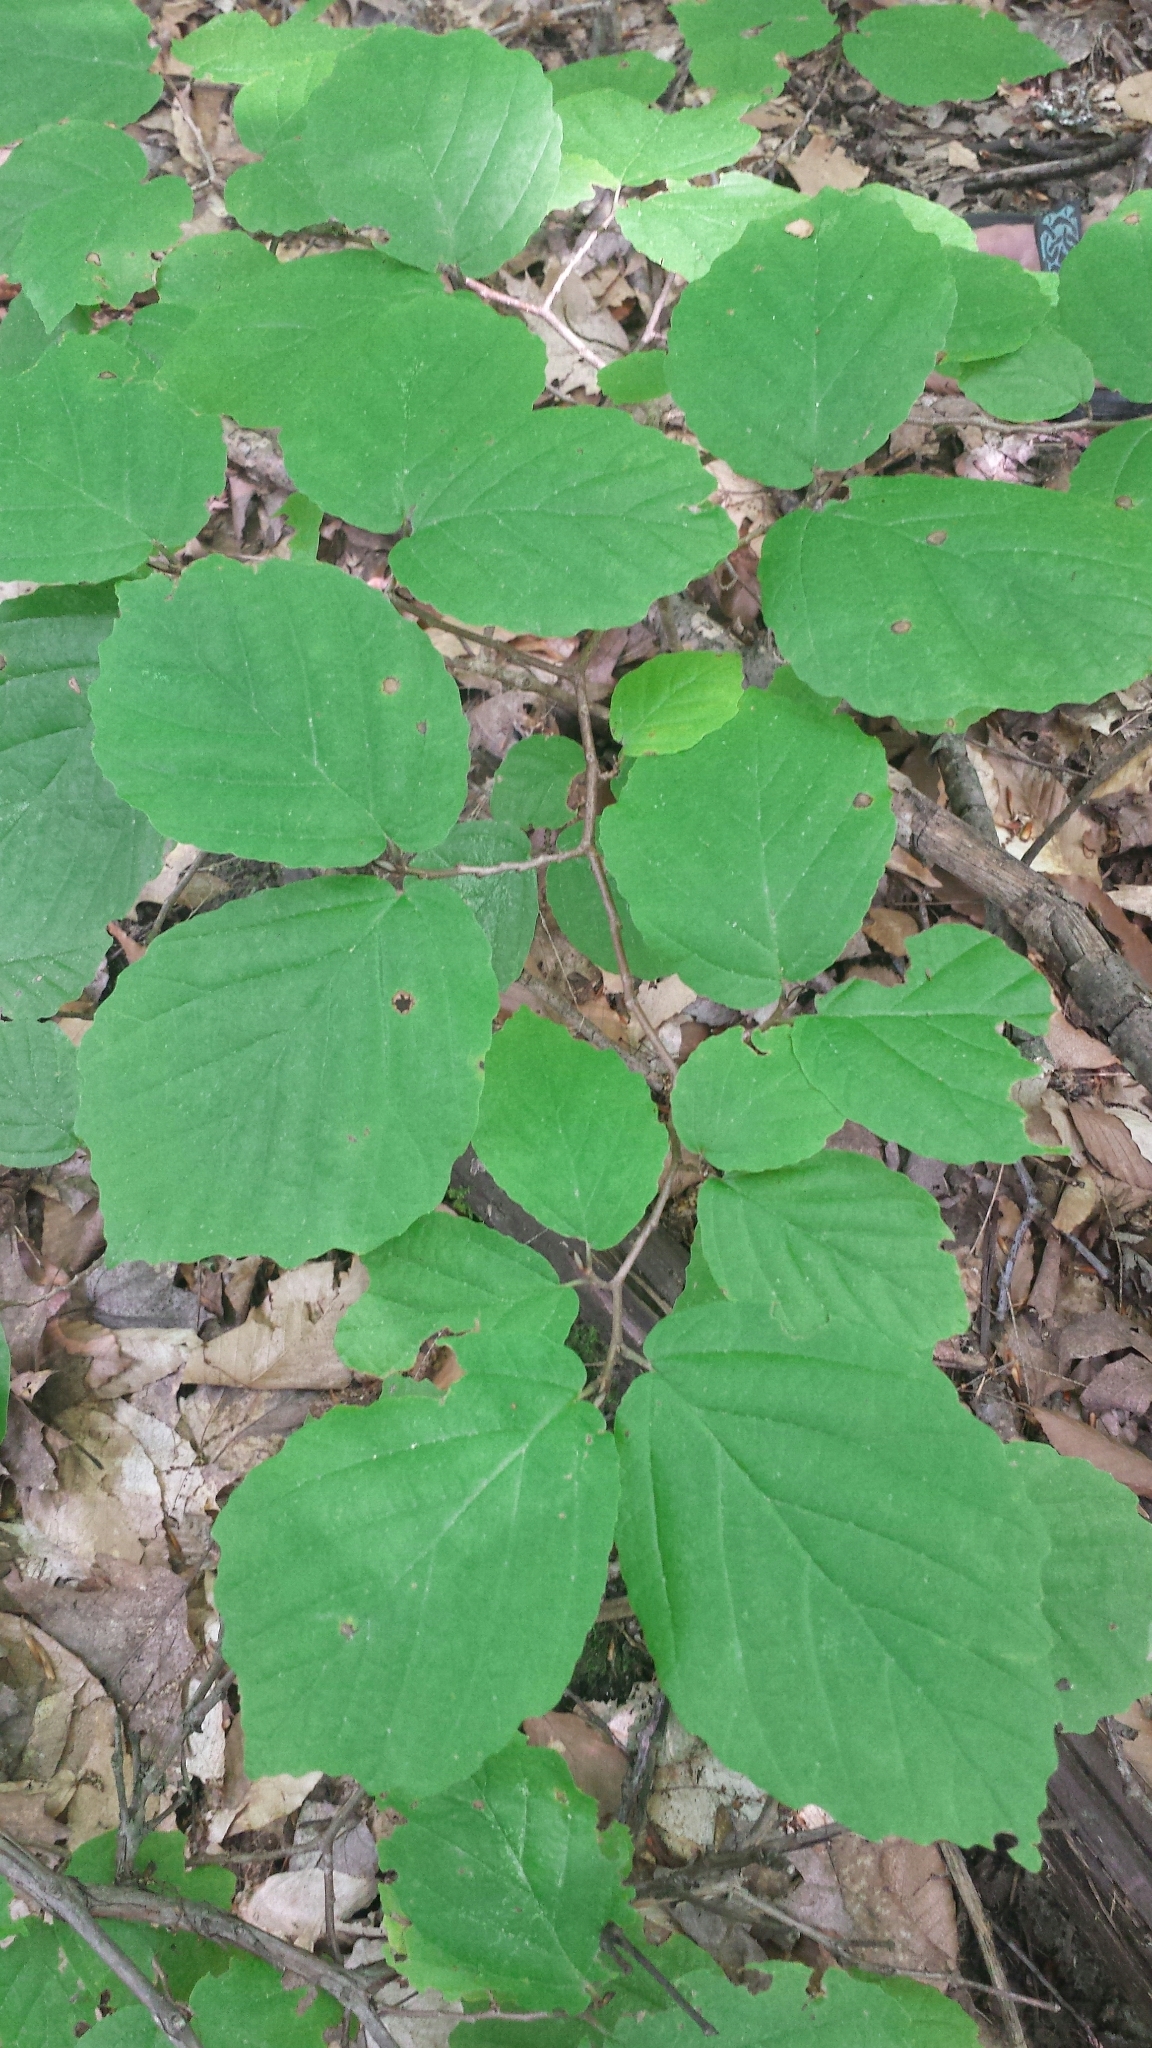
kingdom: Plantae
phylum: Tracheophyta
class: Magnoliopsida
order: Saxifragales
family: Hamamelidaceae
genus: Hamamelis
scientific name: Hamamelis virginiana
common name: Witch-hazel
